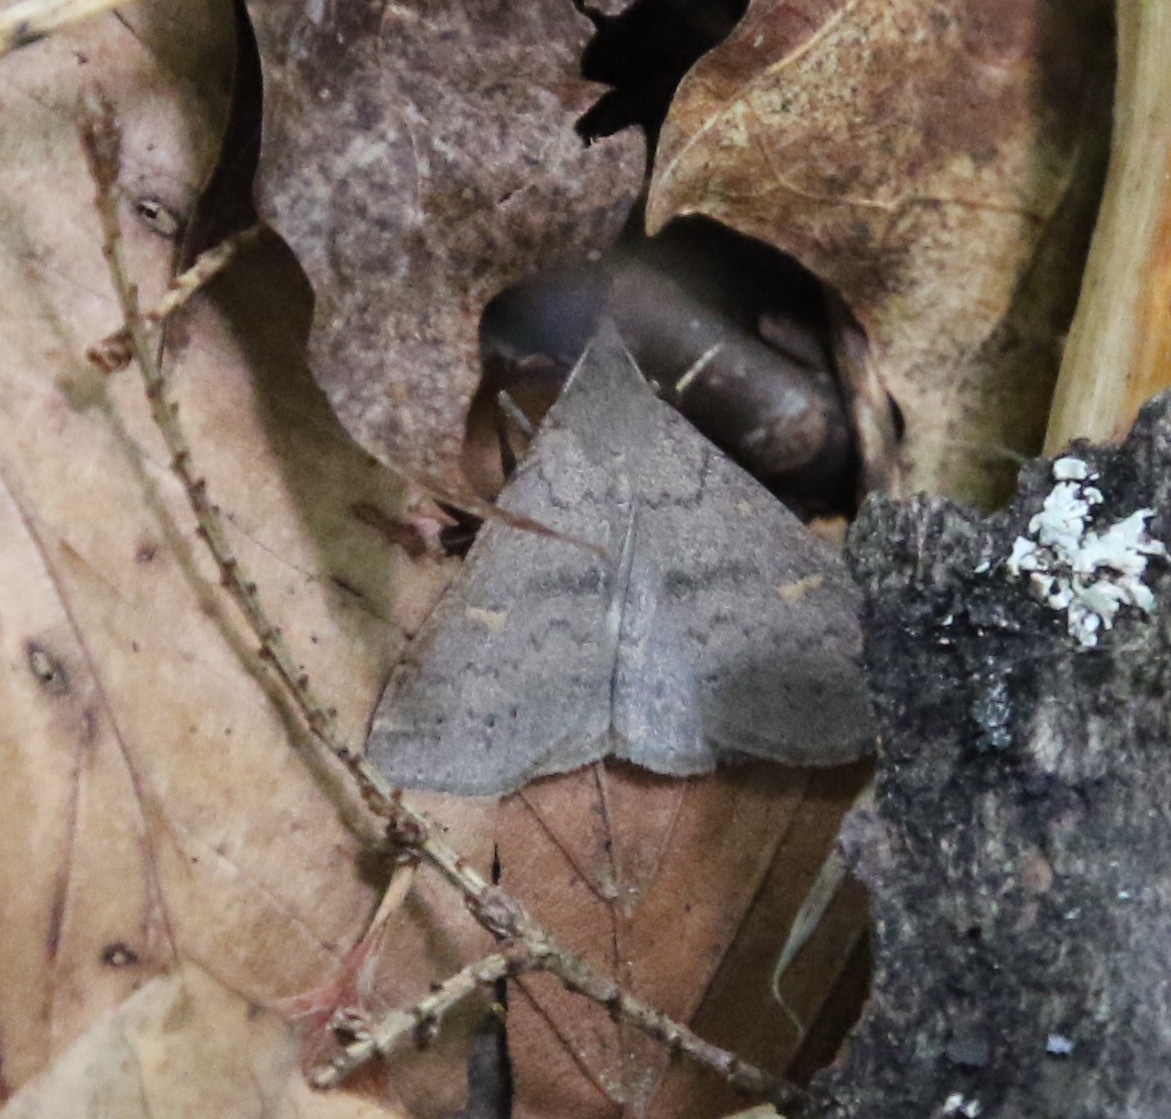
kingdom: Animalia
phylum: Arthropoda
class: Insecta
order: Lepidoptera
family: Erebidae
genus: Renia
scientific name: Renia adspergillus
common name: Speckled renia moth
